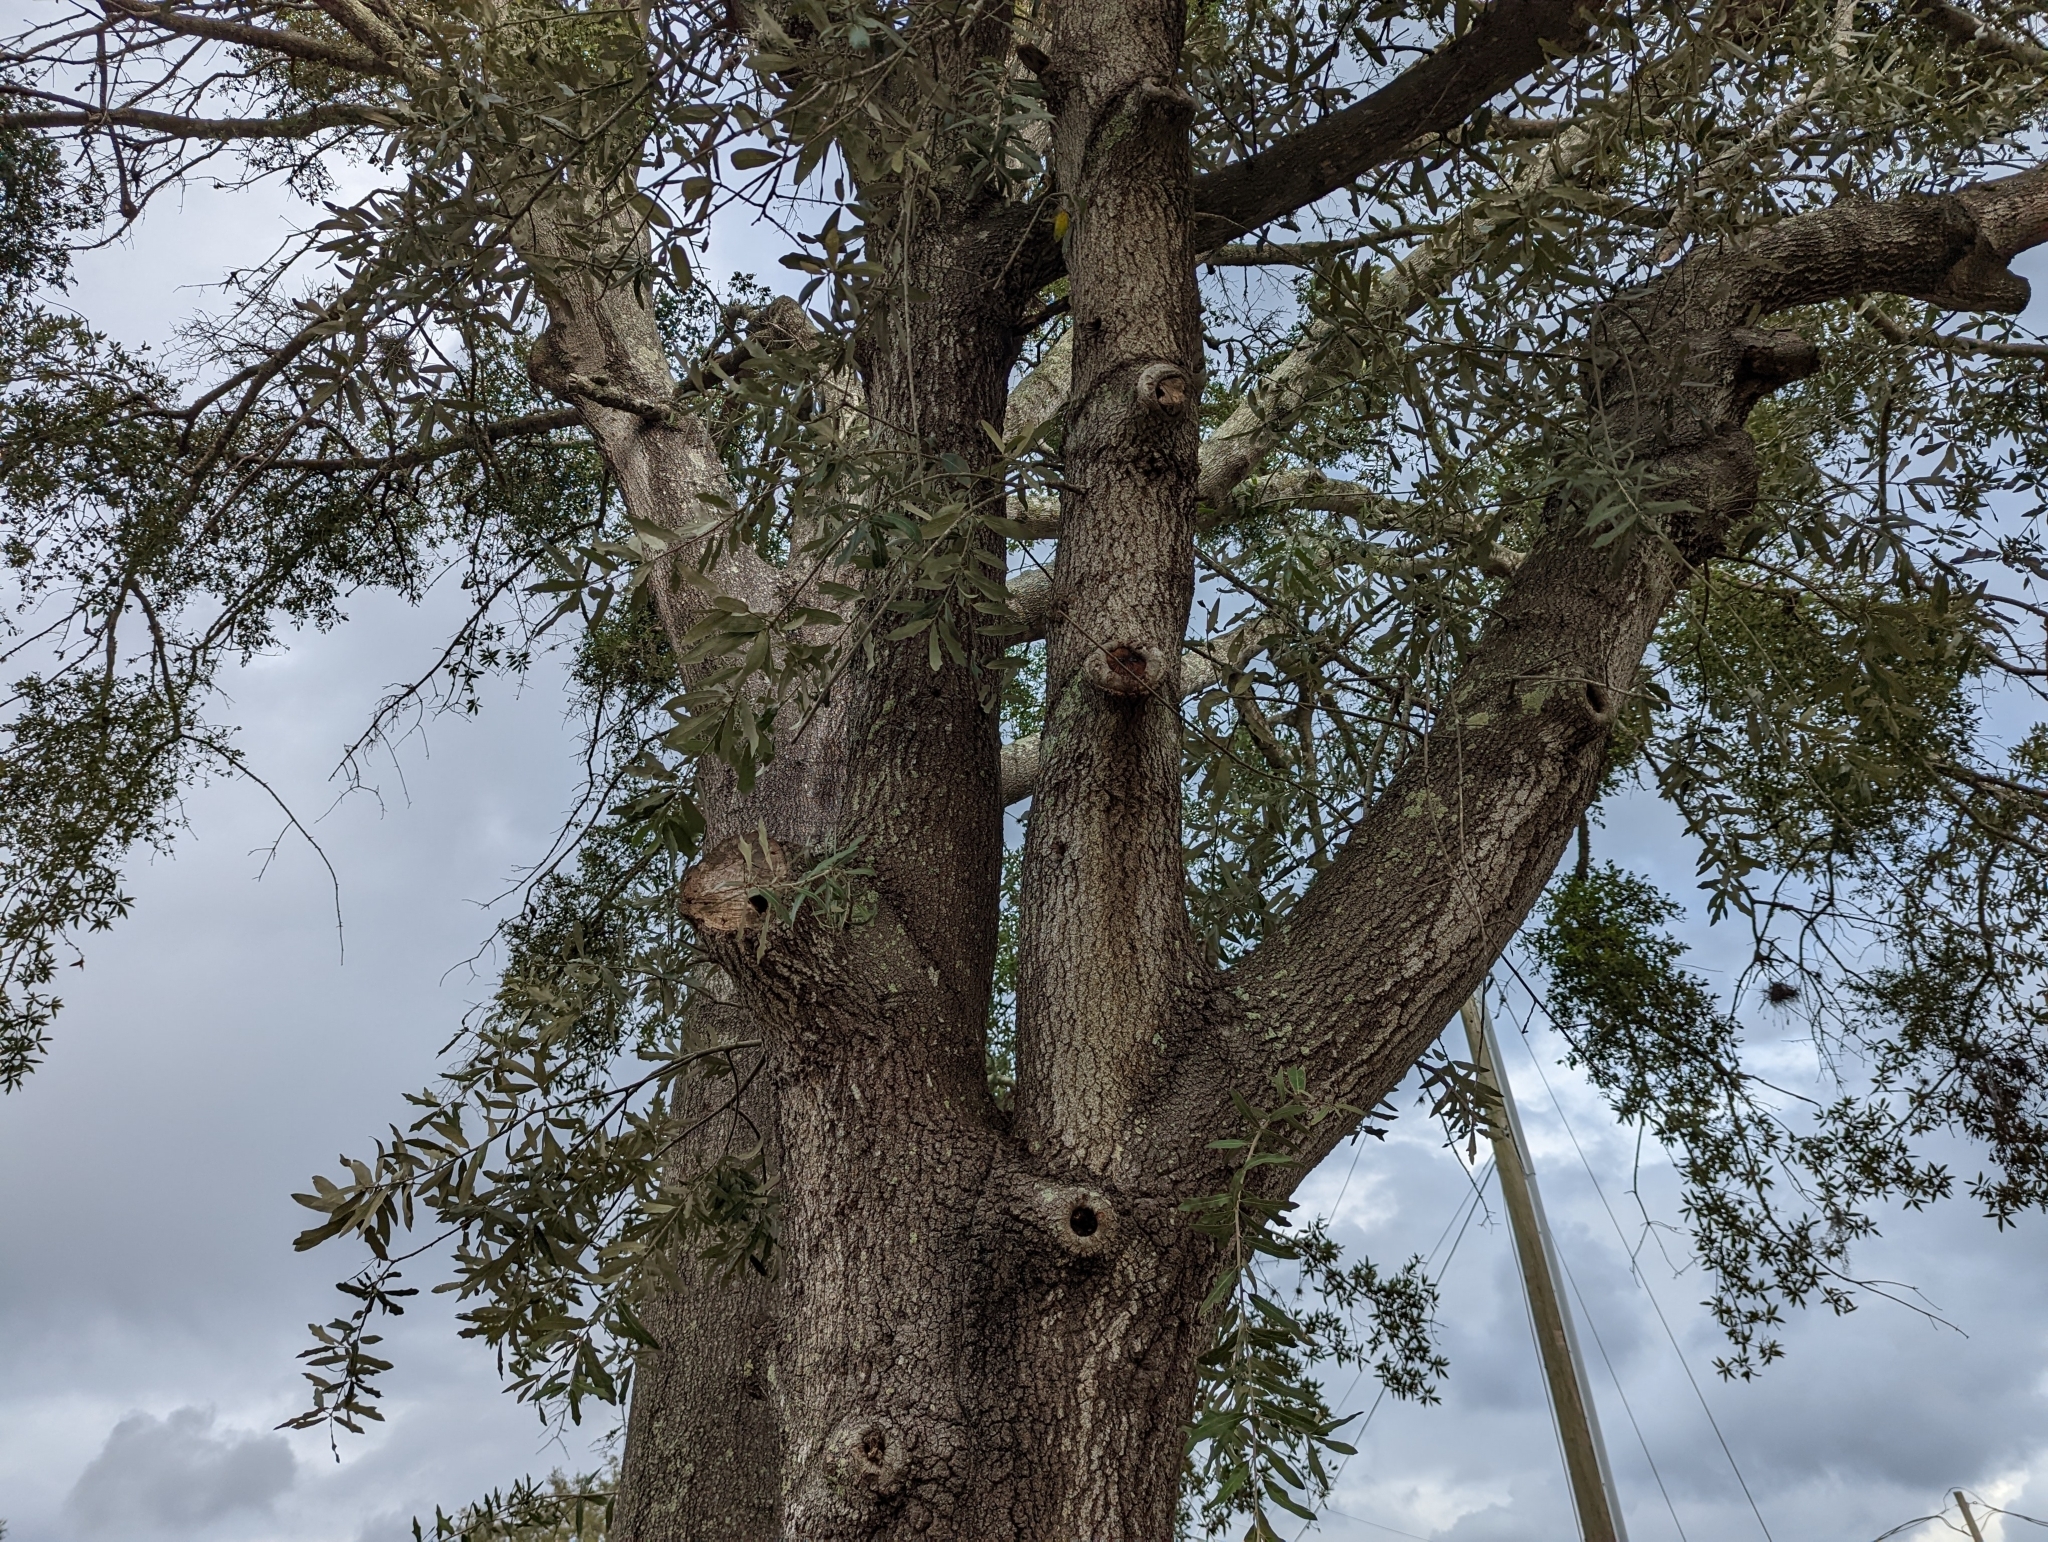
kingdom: Plantae
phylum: Tracheophyta
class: Magnoliopsida
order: Fagales
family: Fagaceae
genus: Quercus
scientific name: Quercus incana
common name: Bluejack oak
